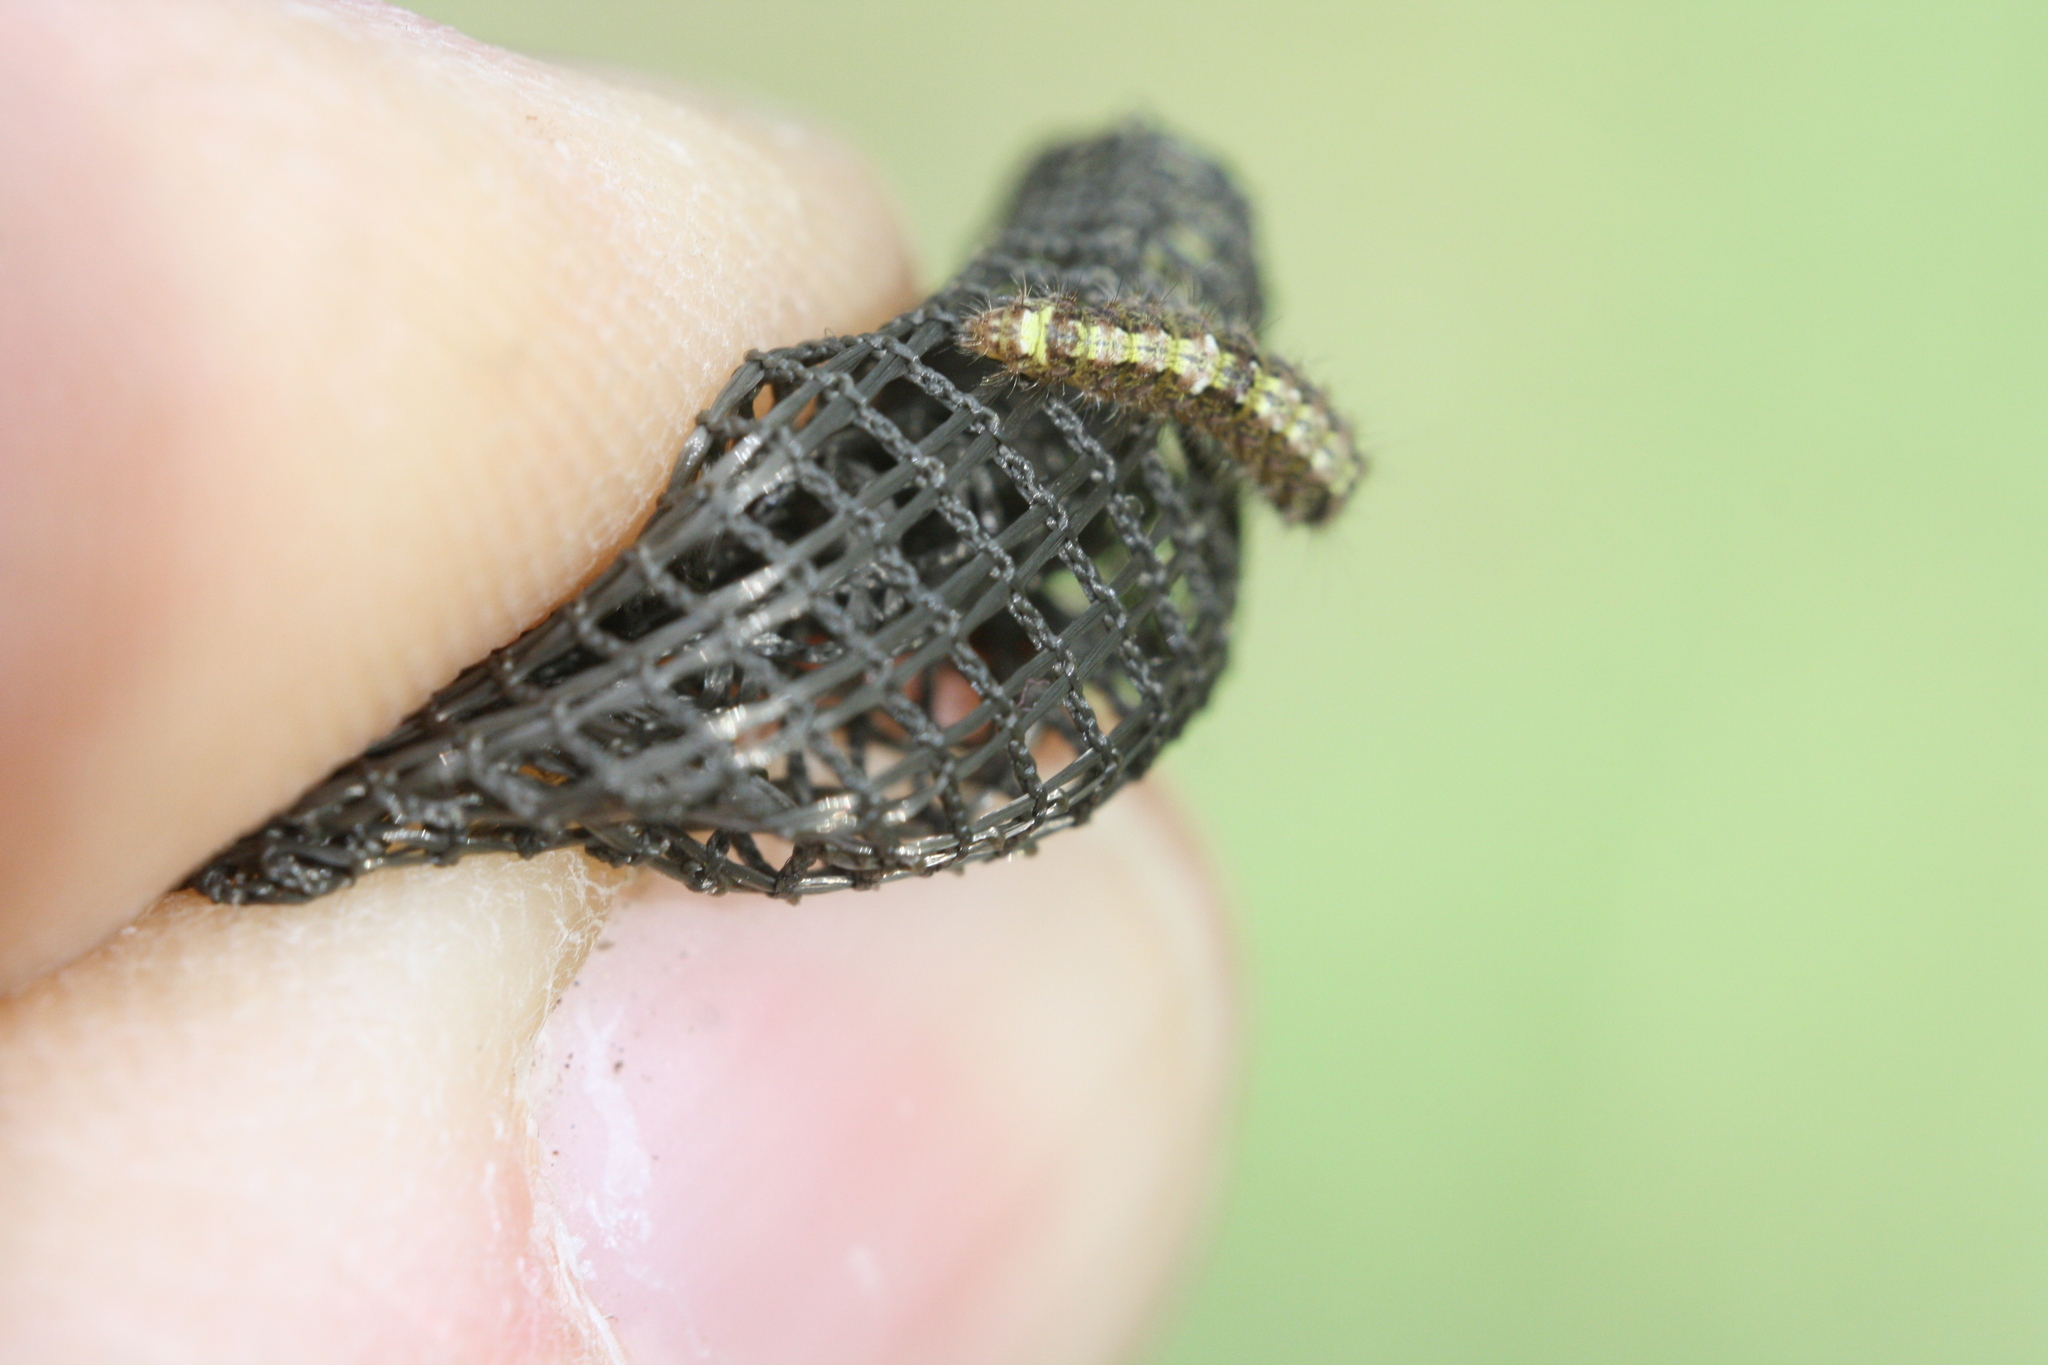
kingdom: Animalia
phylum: Arthropoda
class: Insecta
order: Lepidoptera
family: Erebidae
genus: Katha
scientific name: Katha depressa
